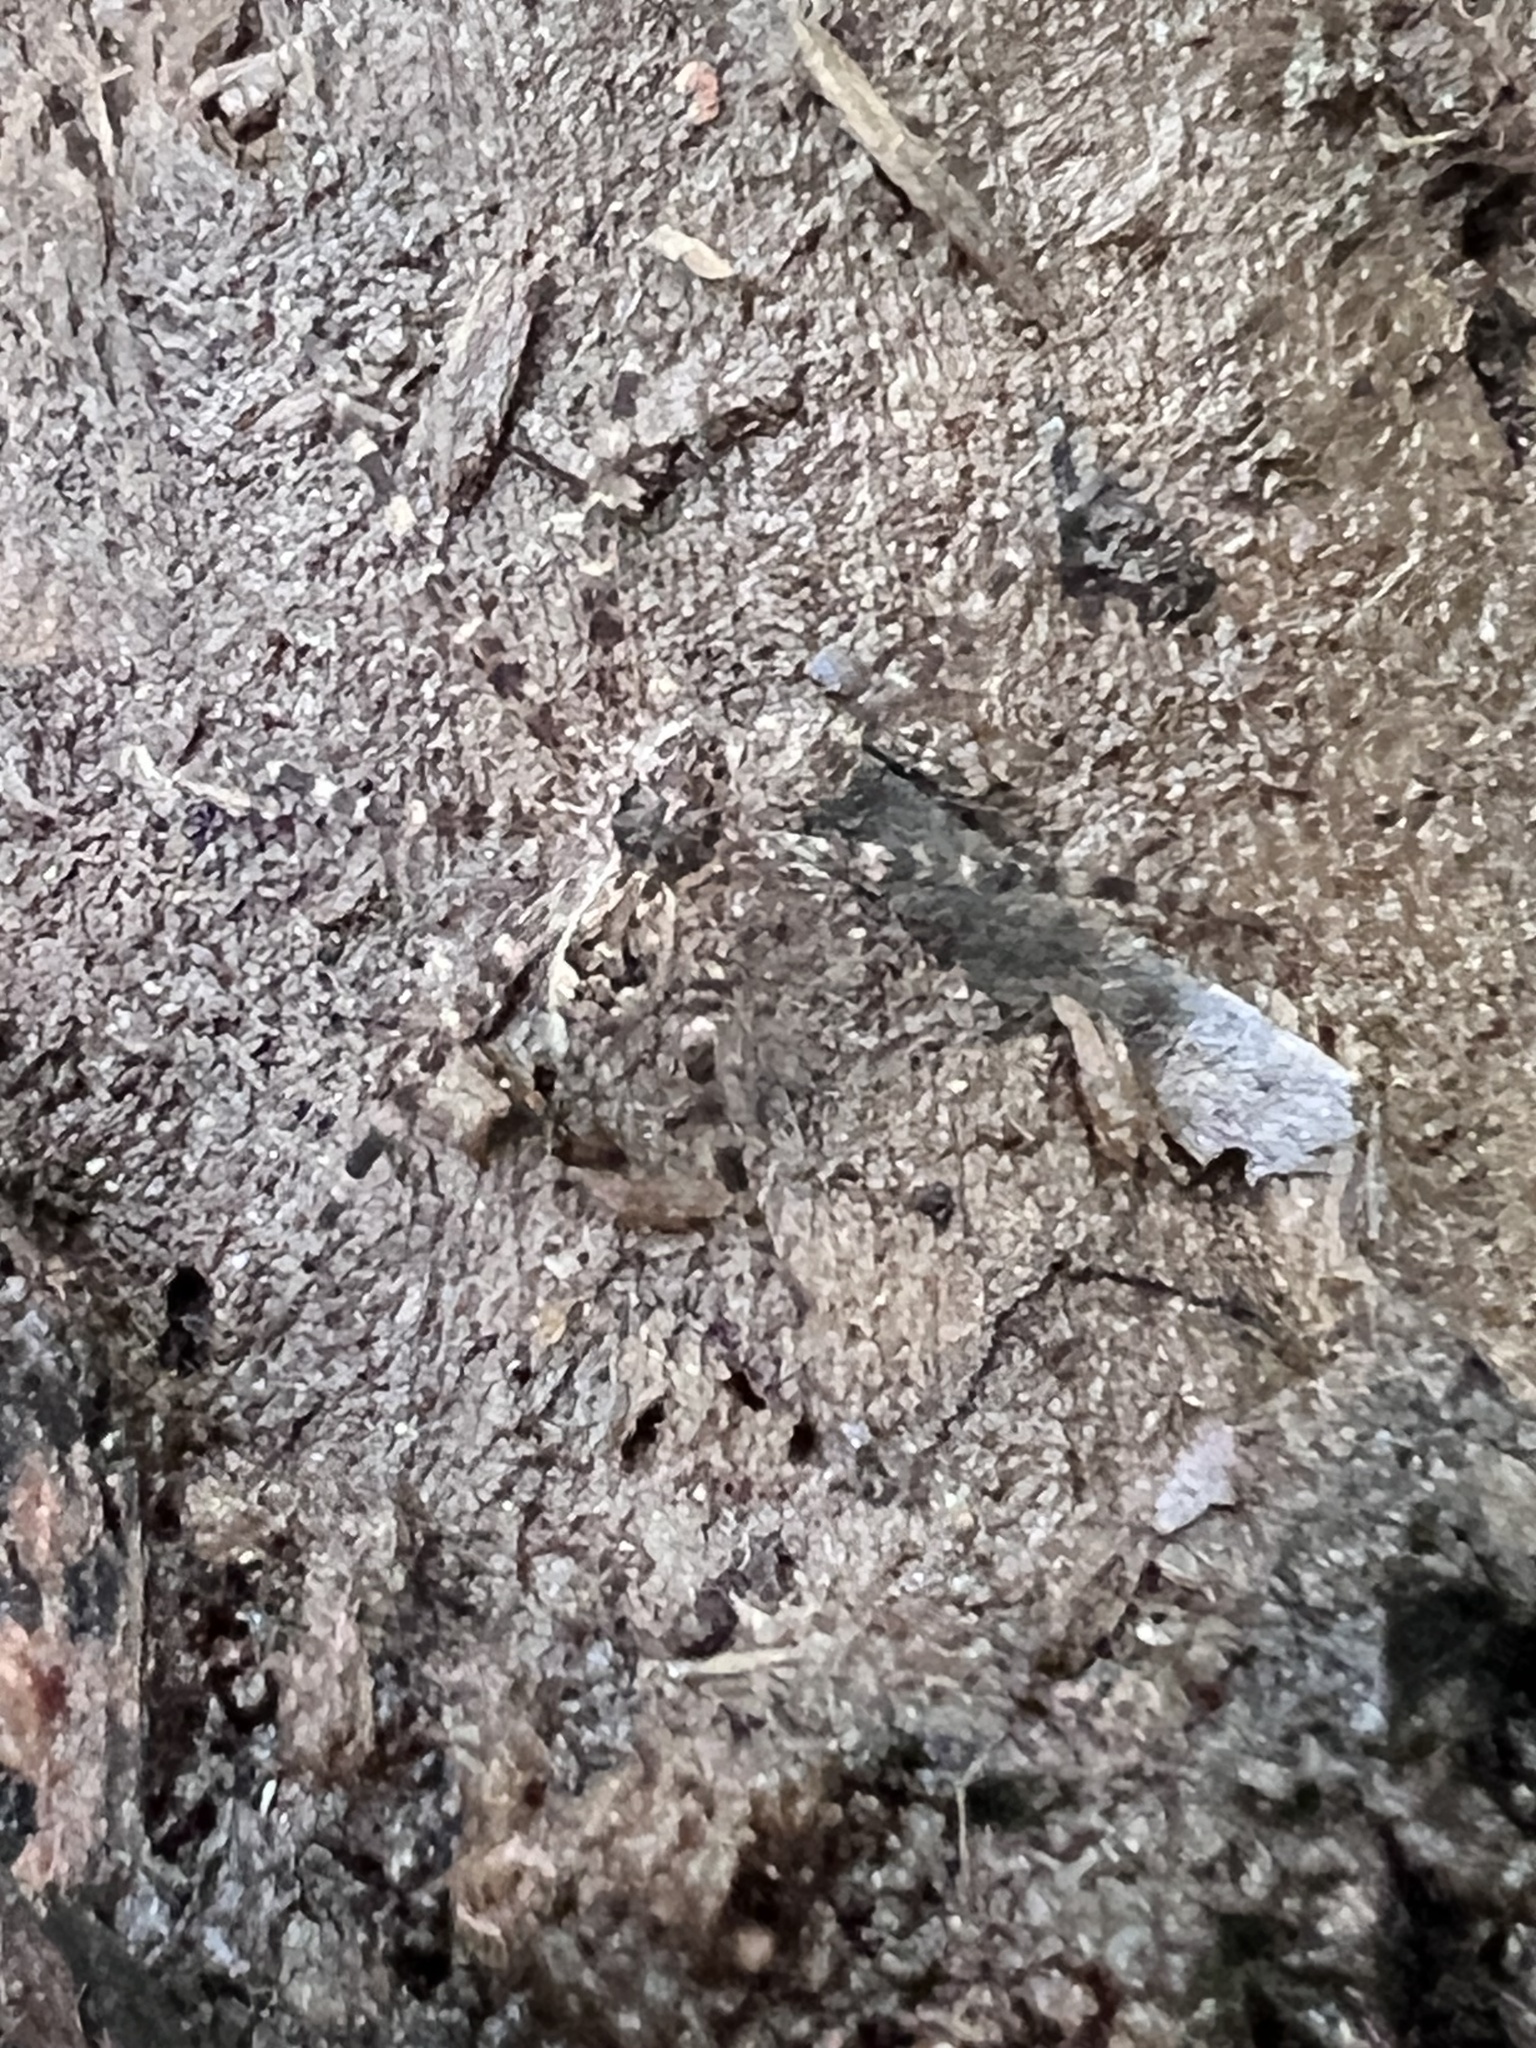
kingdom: Animalia
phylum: Arthropoda
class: Arachnida
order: Araneae
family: Pisauridae
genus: Dolomedes
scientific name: Dolomedes tenebrosus
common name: Dark fishing spider
